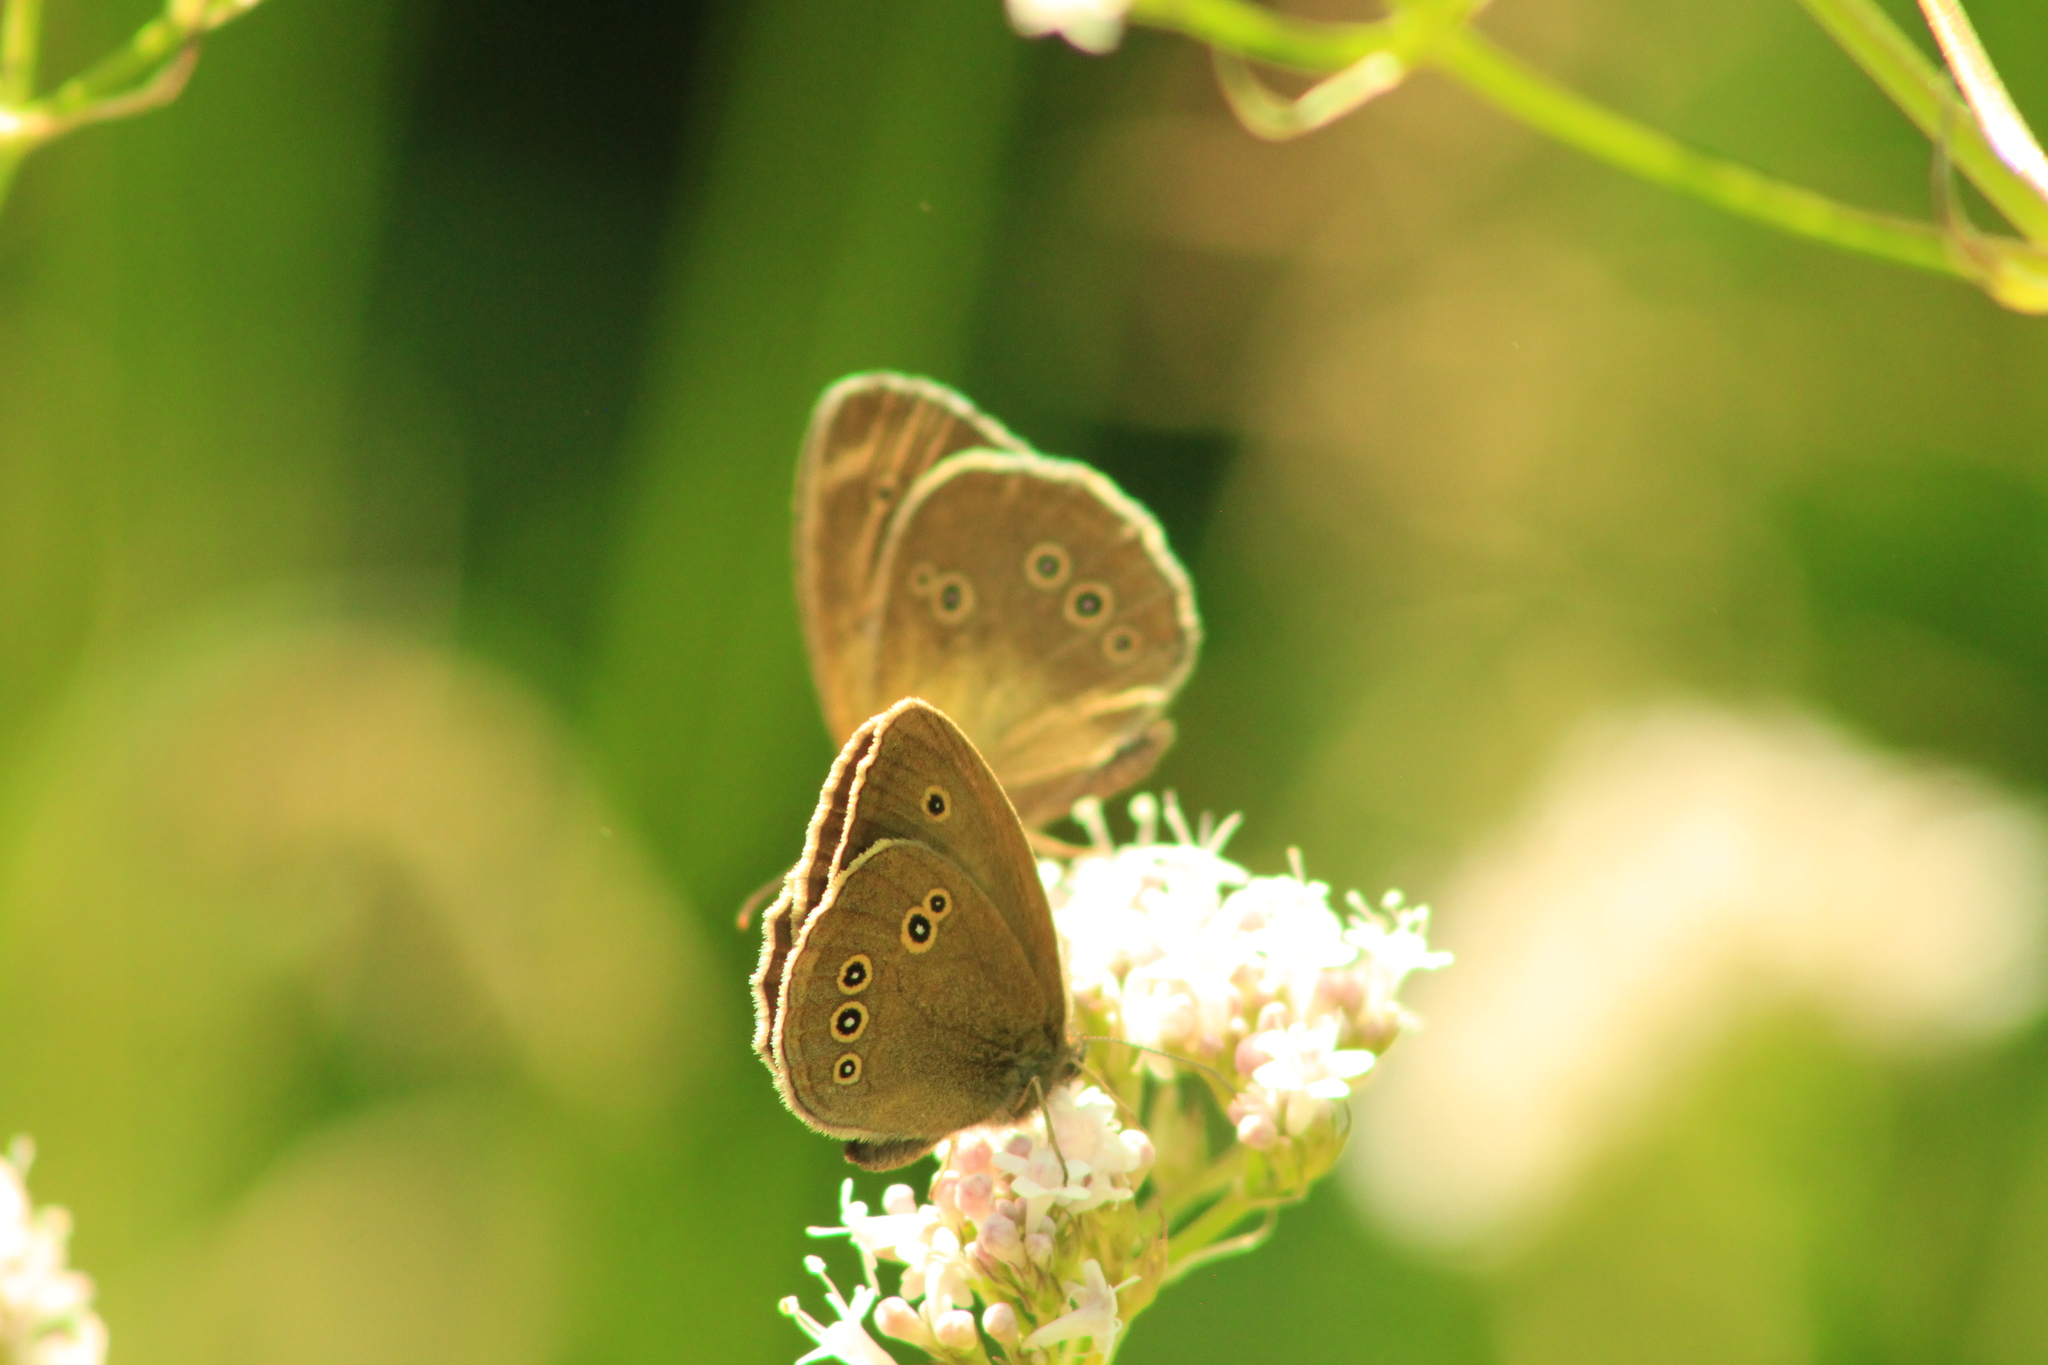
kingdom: Animalia
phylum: Arthropoda
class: Insecta
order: Lepidoptera
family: Nymphalidae
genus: Aphantopus
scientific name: Aphantopus hyperantus
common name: Ringlet
